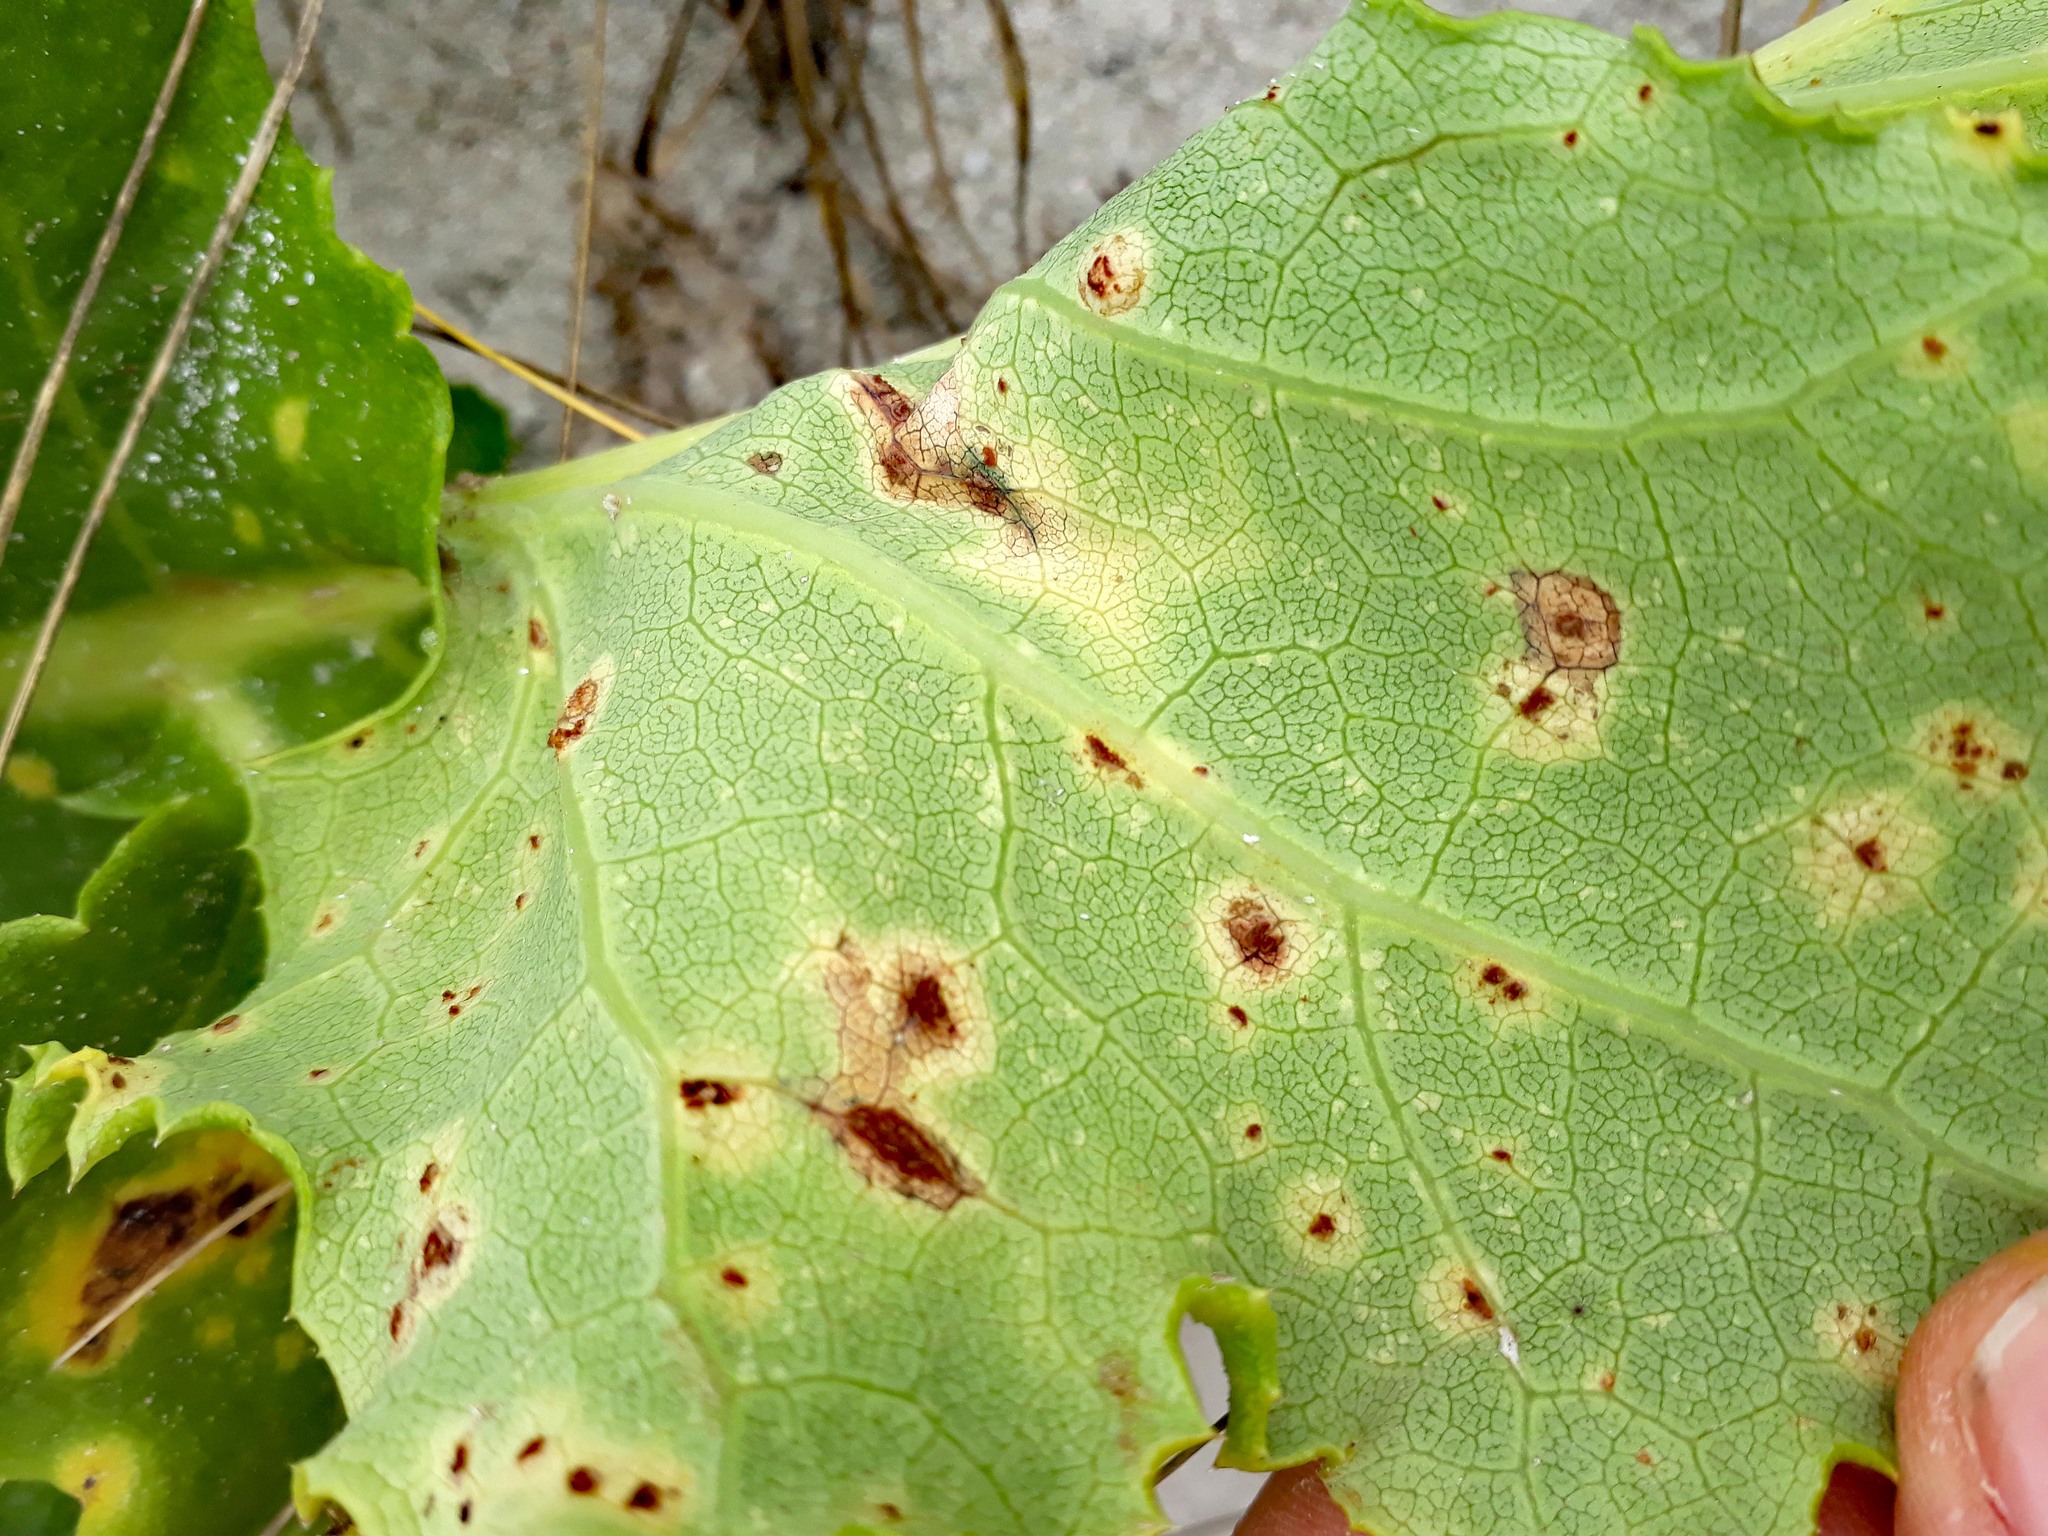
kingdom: Fungi
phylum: Basidiomycota
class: Pucciniomycetes
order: Pucciniales
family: Pucciniaceae
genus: Puccinia
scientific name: Puccinia embergeriae
